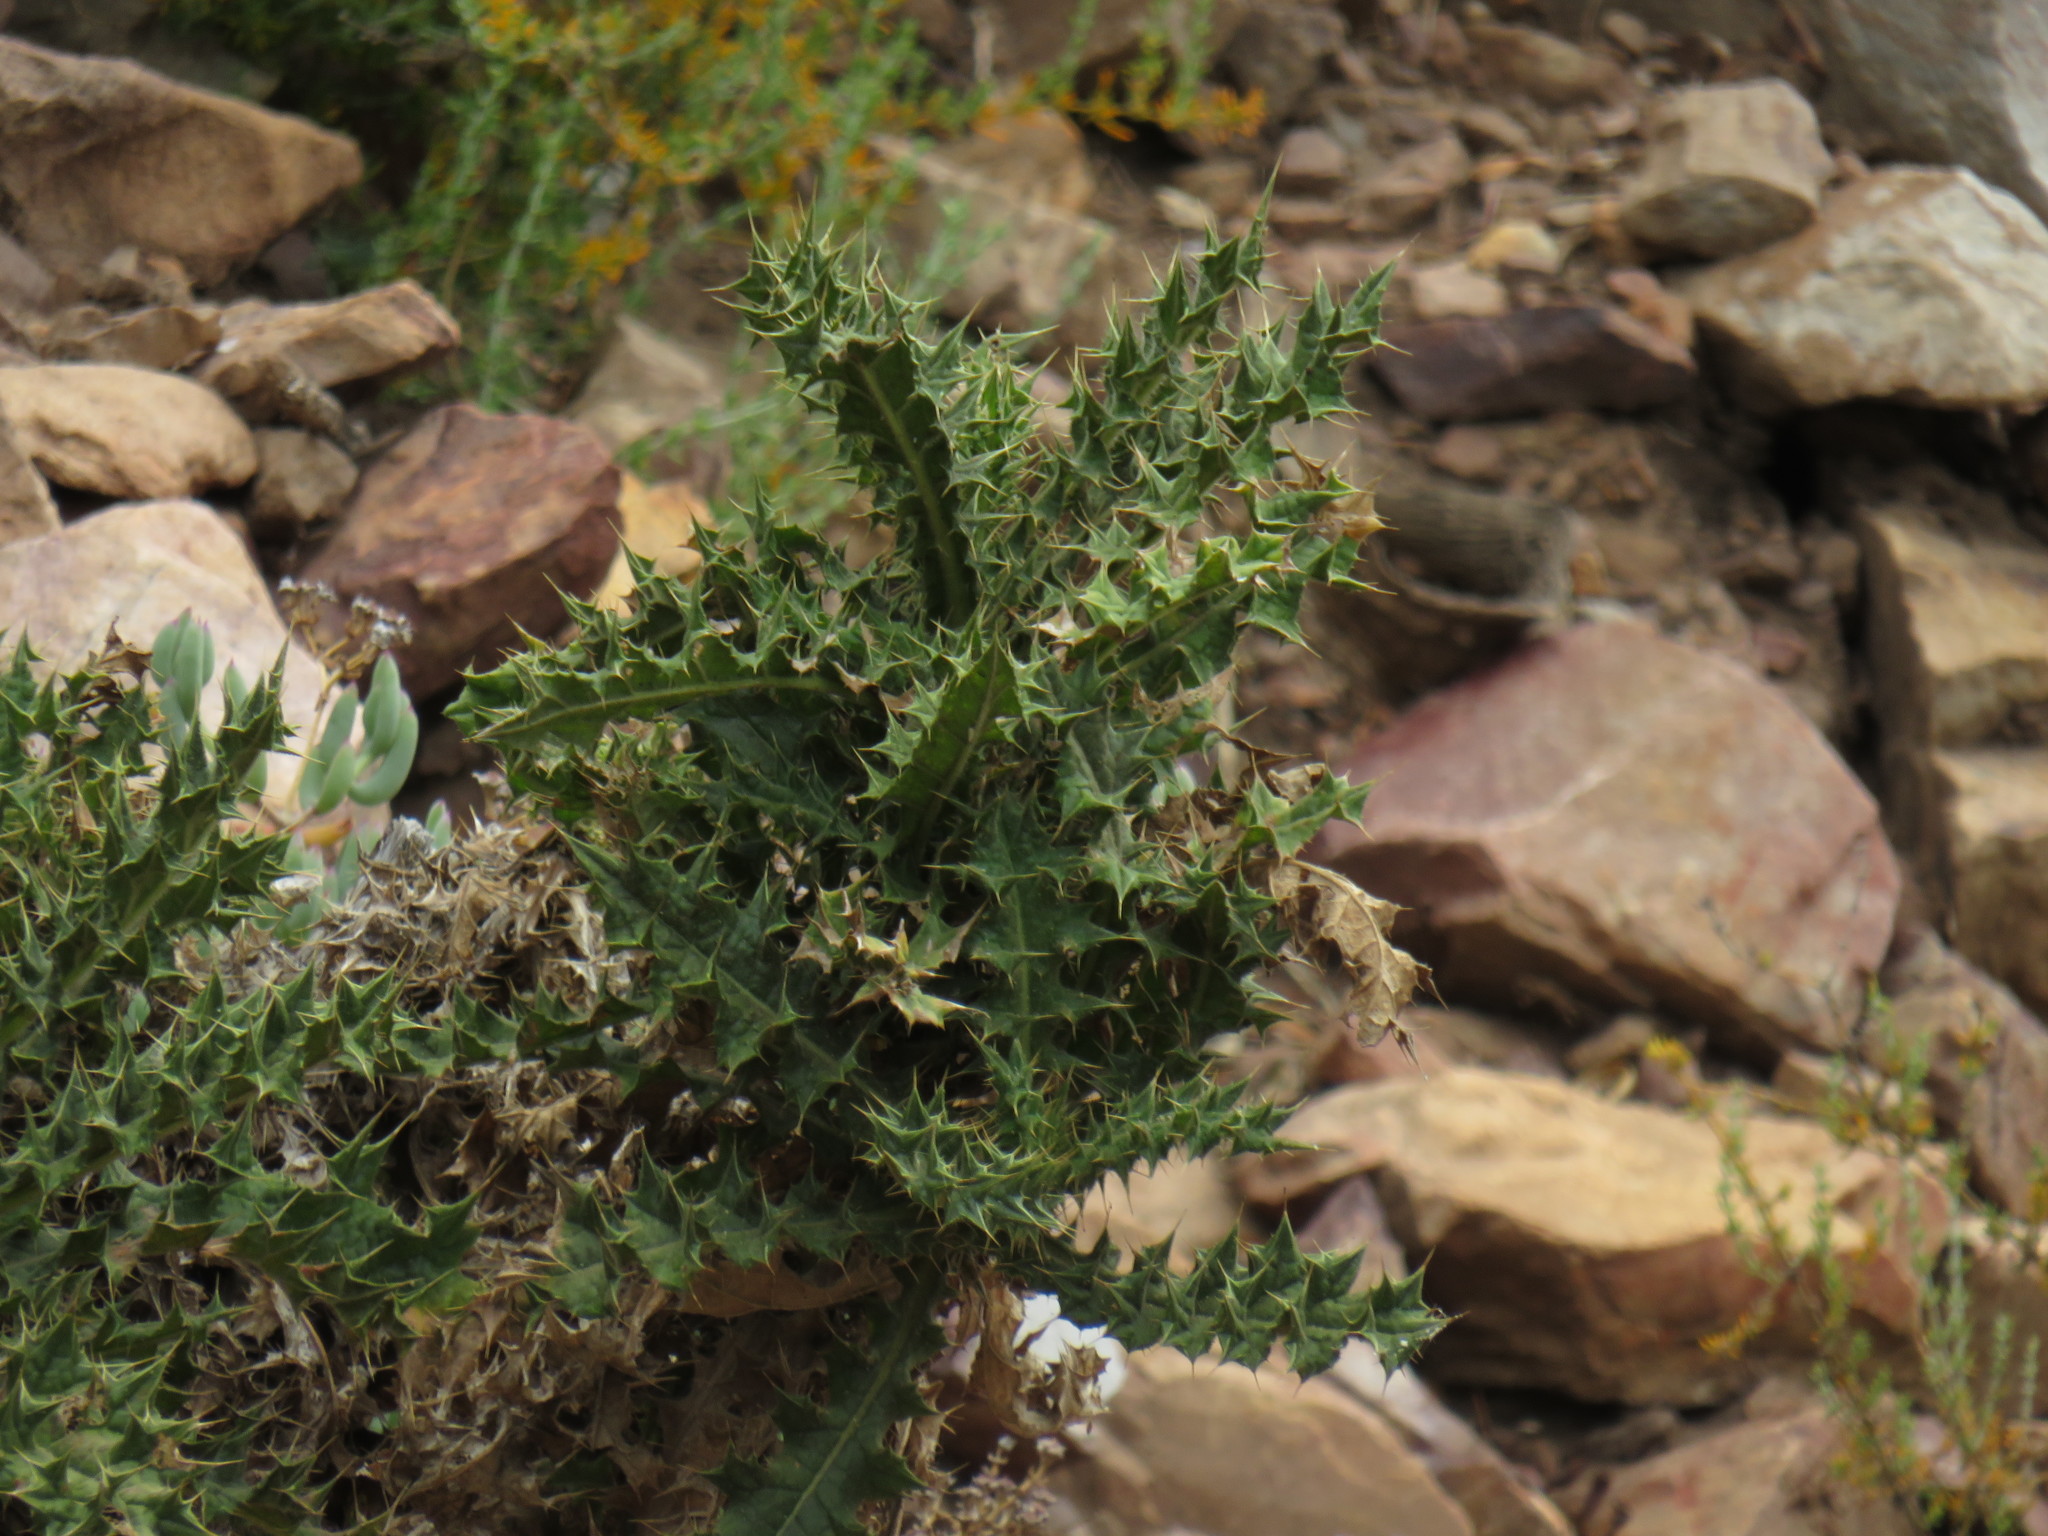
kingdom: Plantae
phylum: Tracheophyta
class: Magnoliopsida
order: Asterales
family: Asteraceae
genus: Berkheya
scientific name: Berkheya onobromoides
